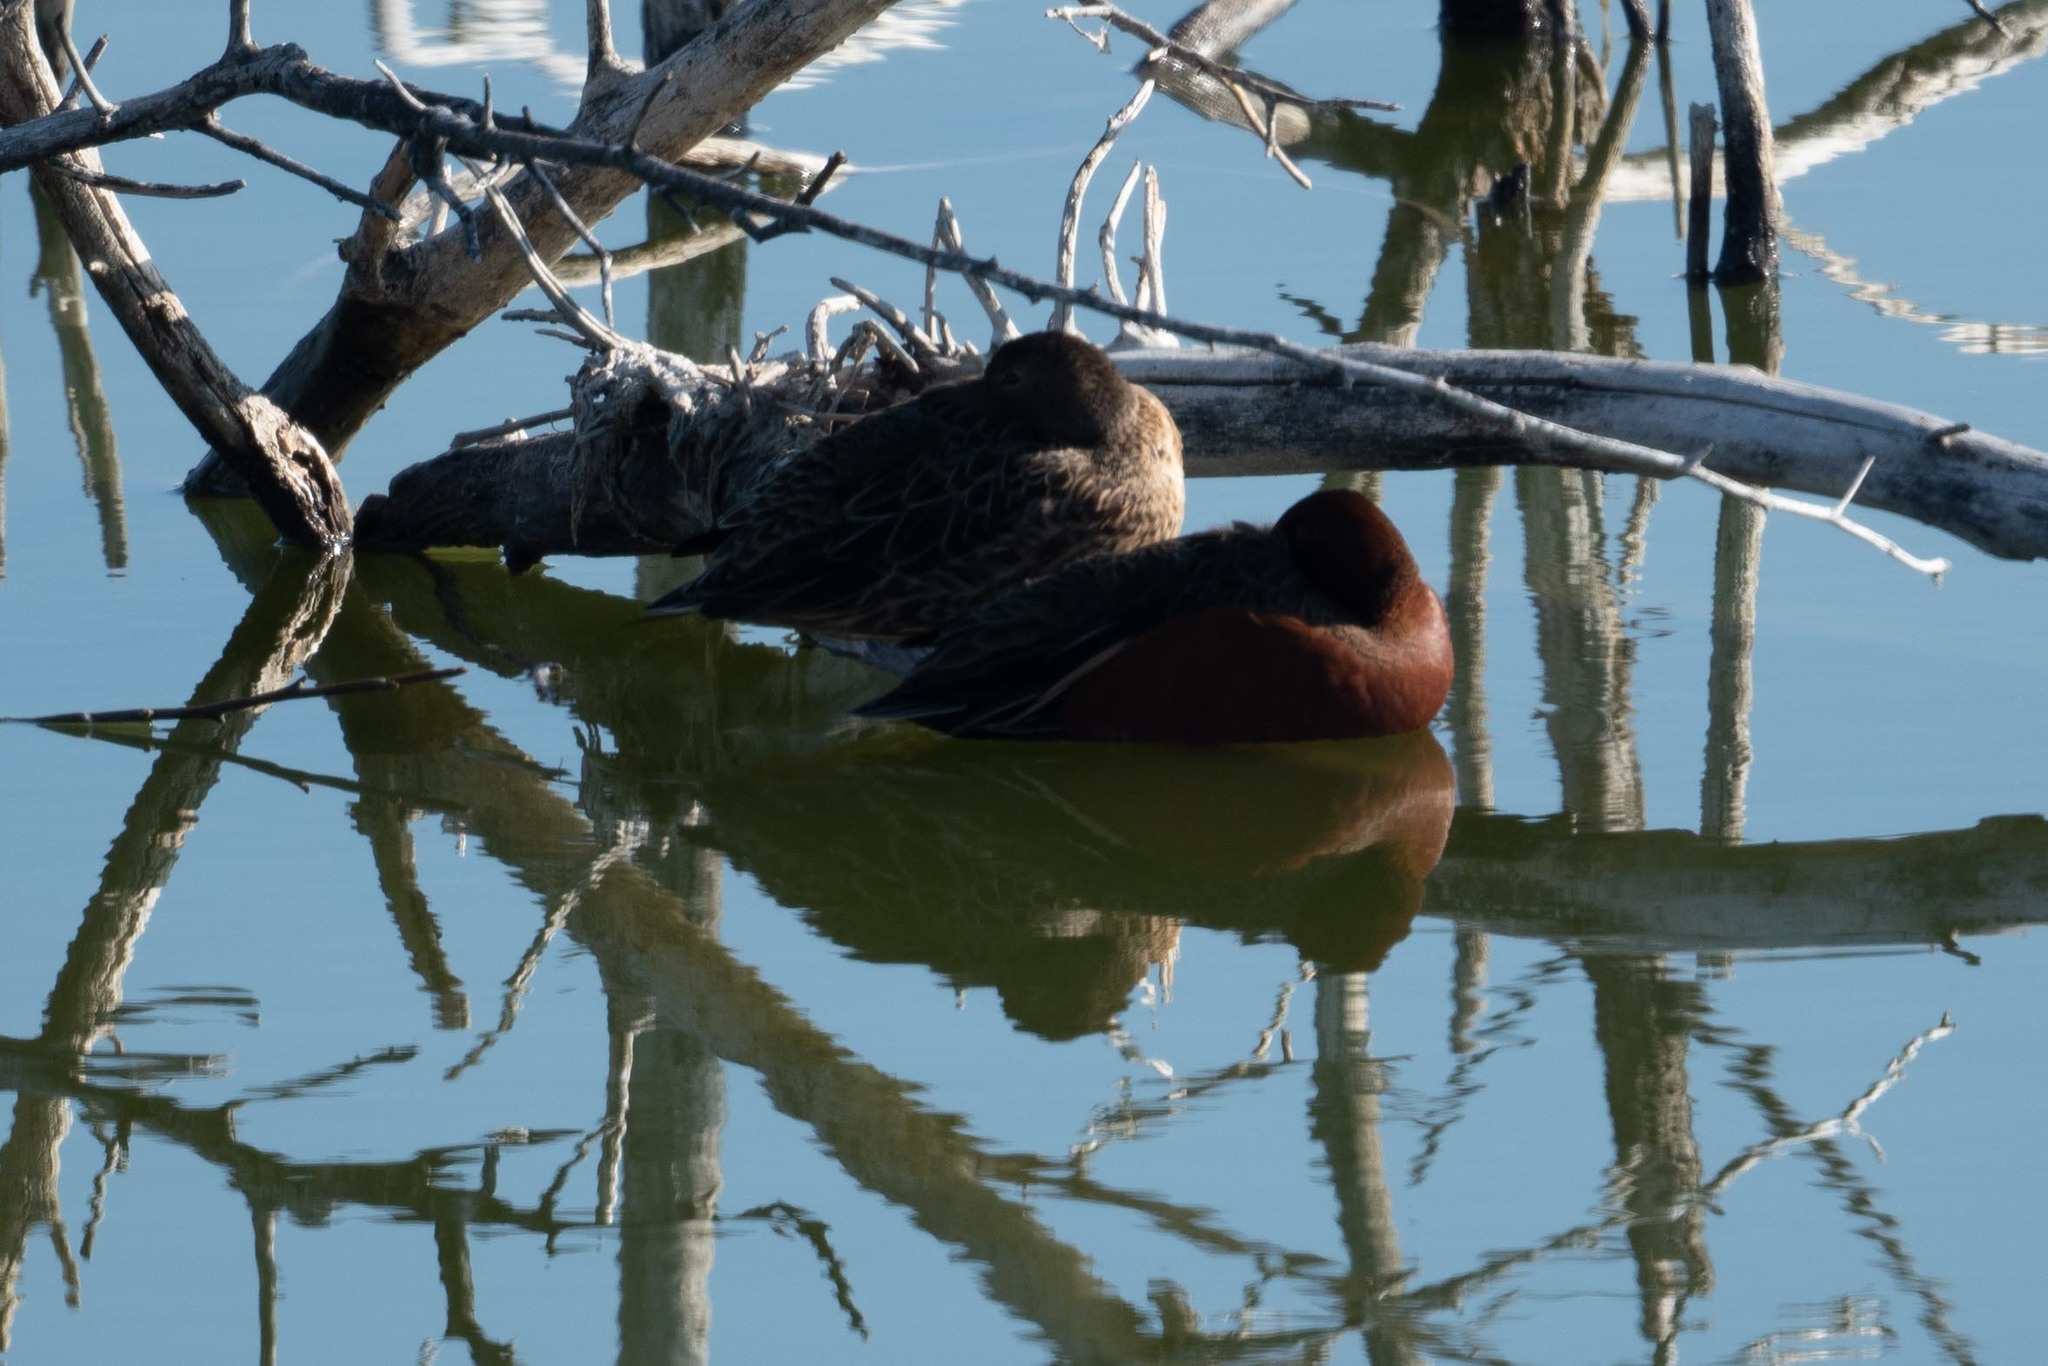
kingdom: Animalia
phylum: Chordata
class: Aves
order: Anseriformes
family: Anatidae
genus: Spatula
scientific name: Spatula cyanoptera
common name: Cinnamon teal
